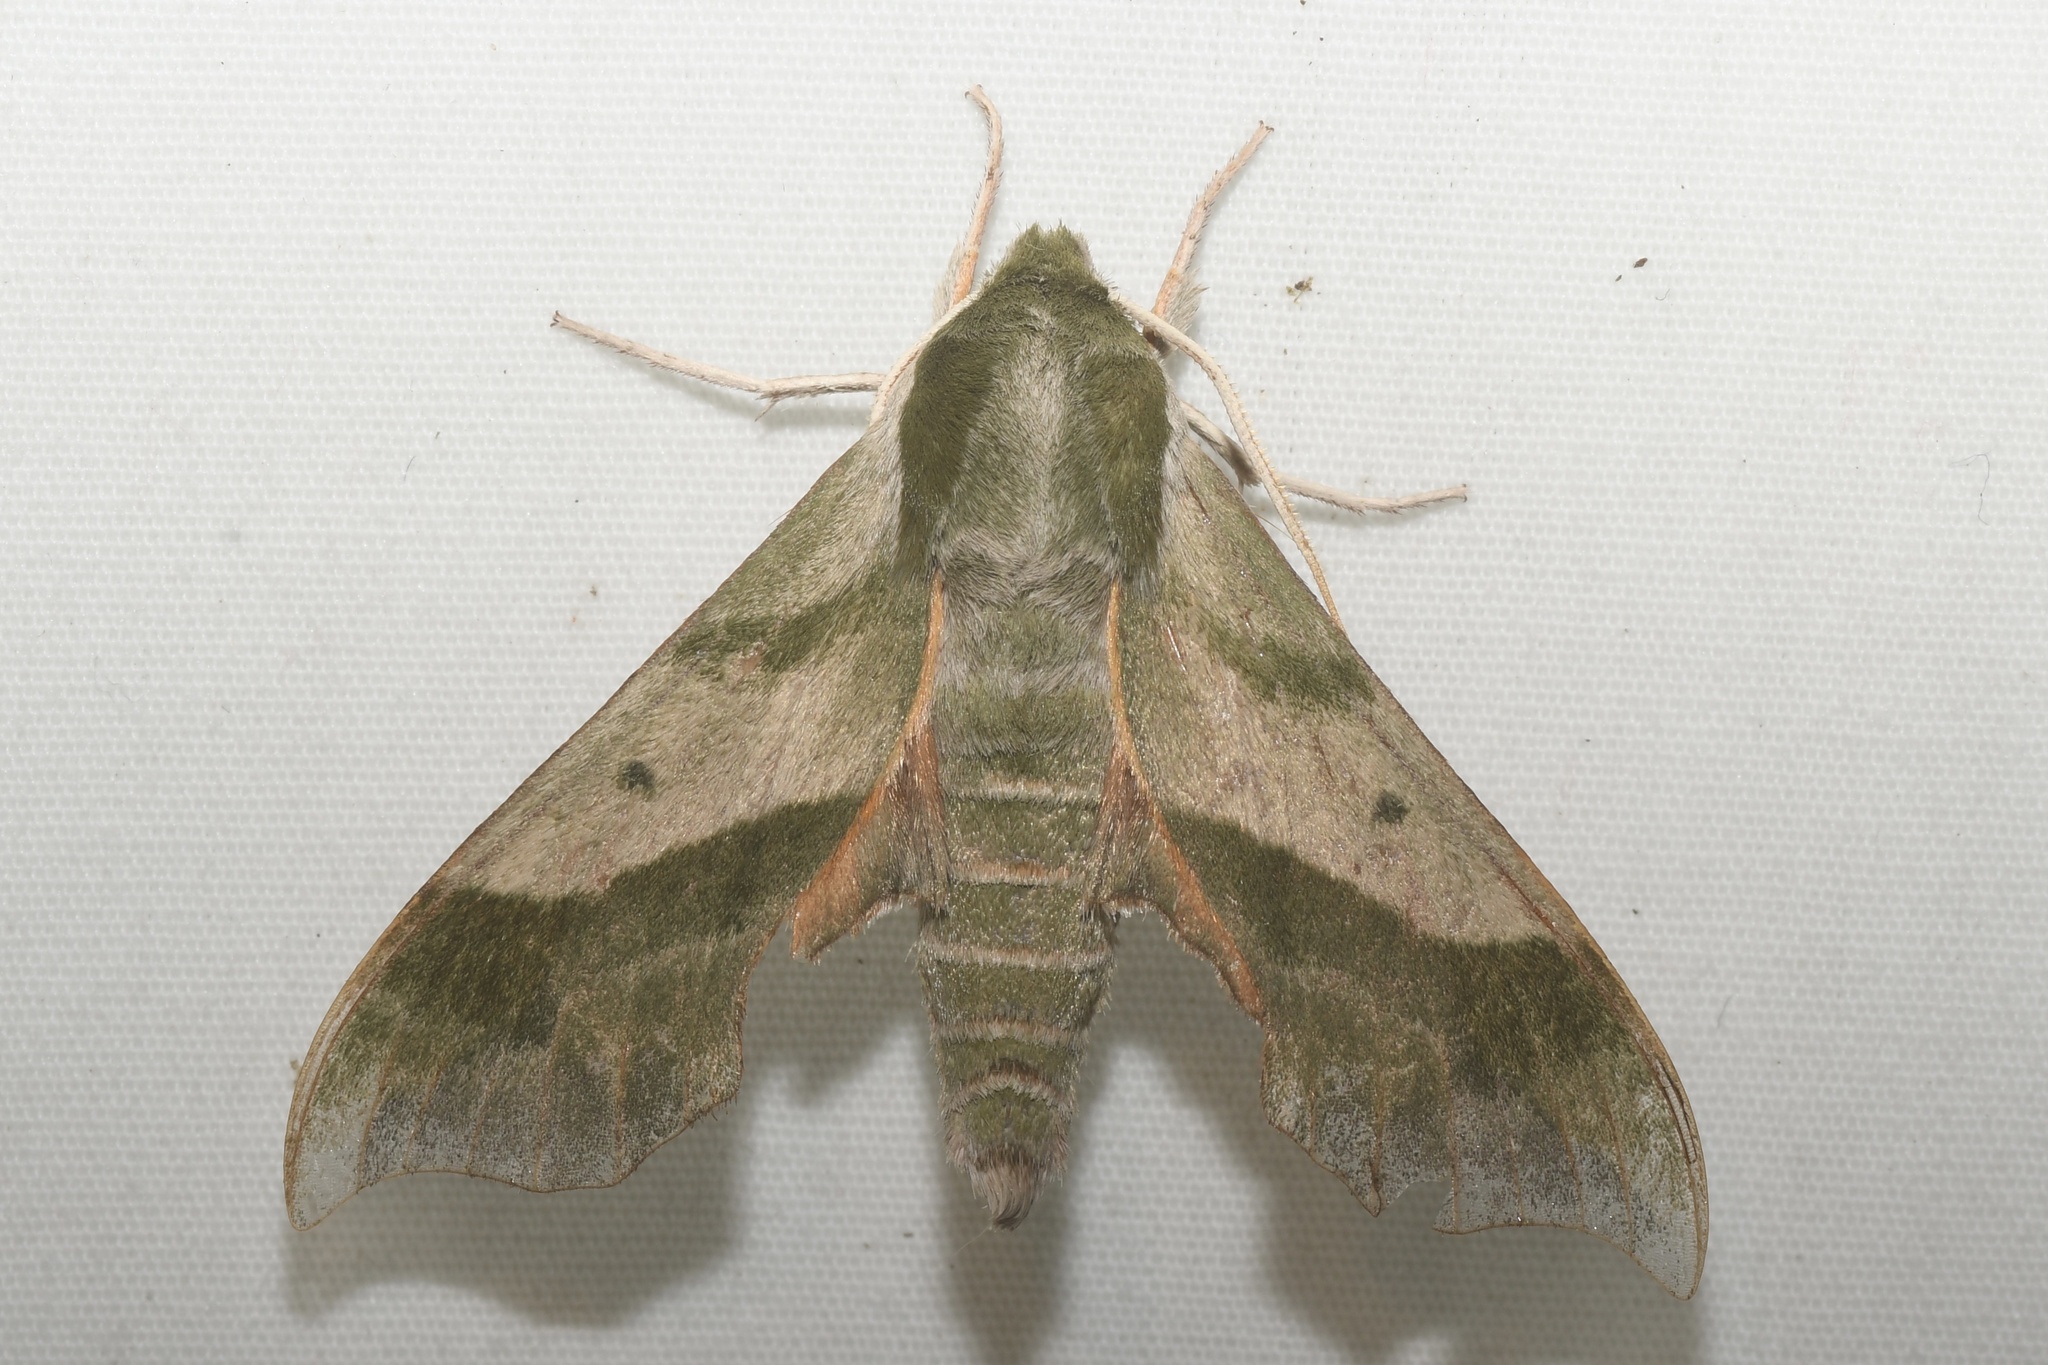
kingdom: Animalia
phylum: Arthropoda
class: Insecta
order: Lepidoptera
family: Sphingidae
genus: Darapsa
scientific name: Darapsa myron
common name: Hog sphinx
